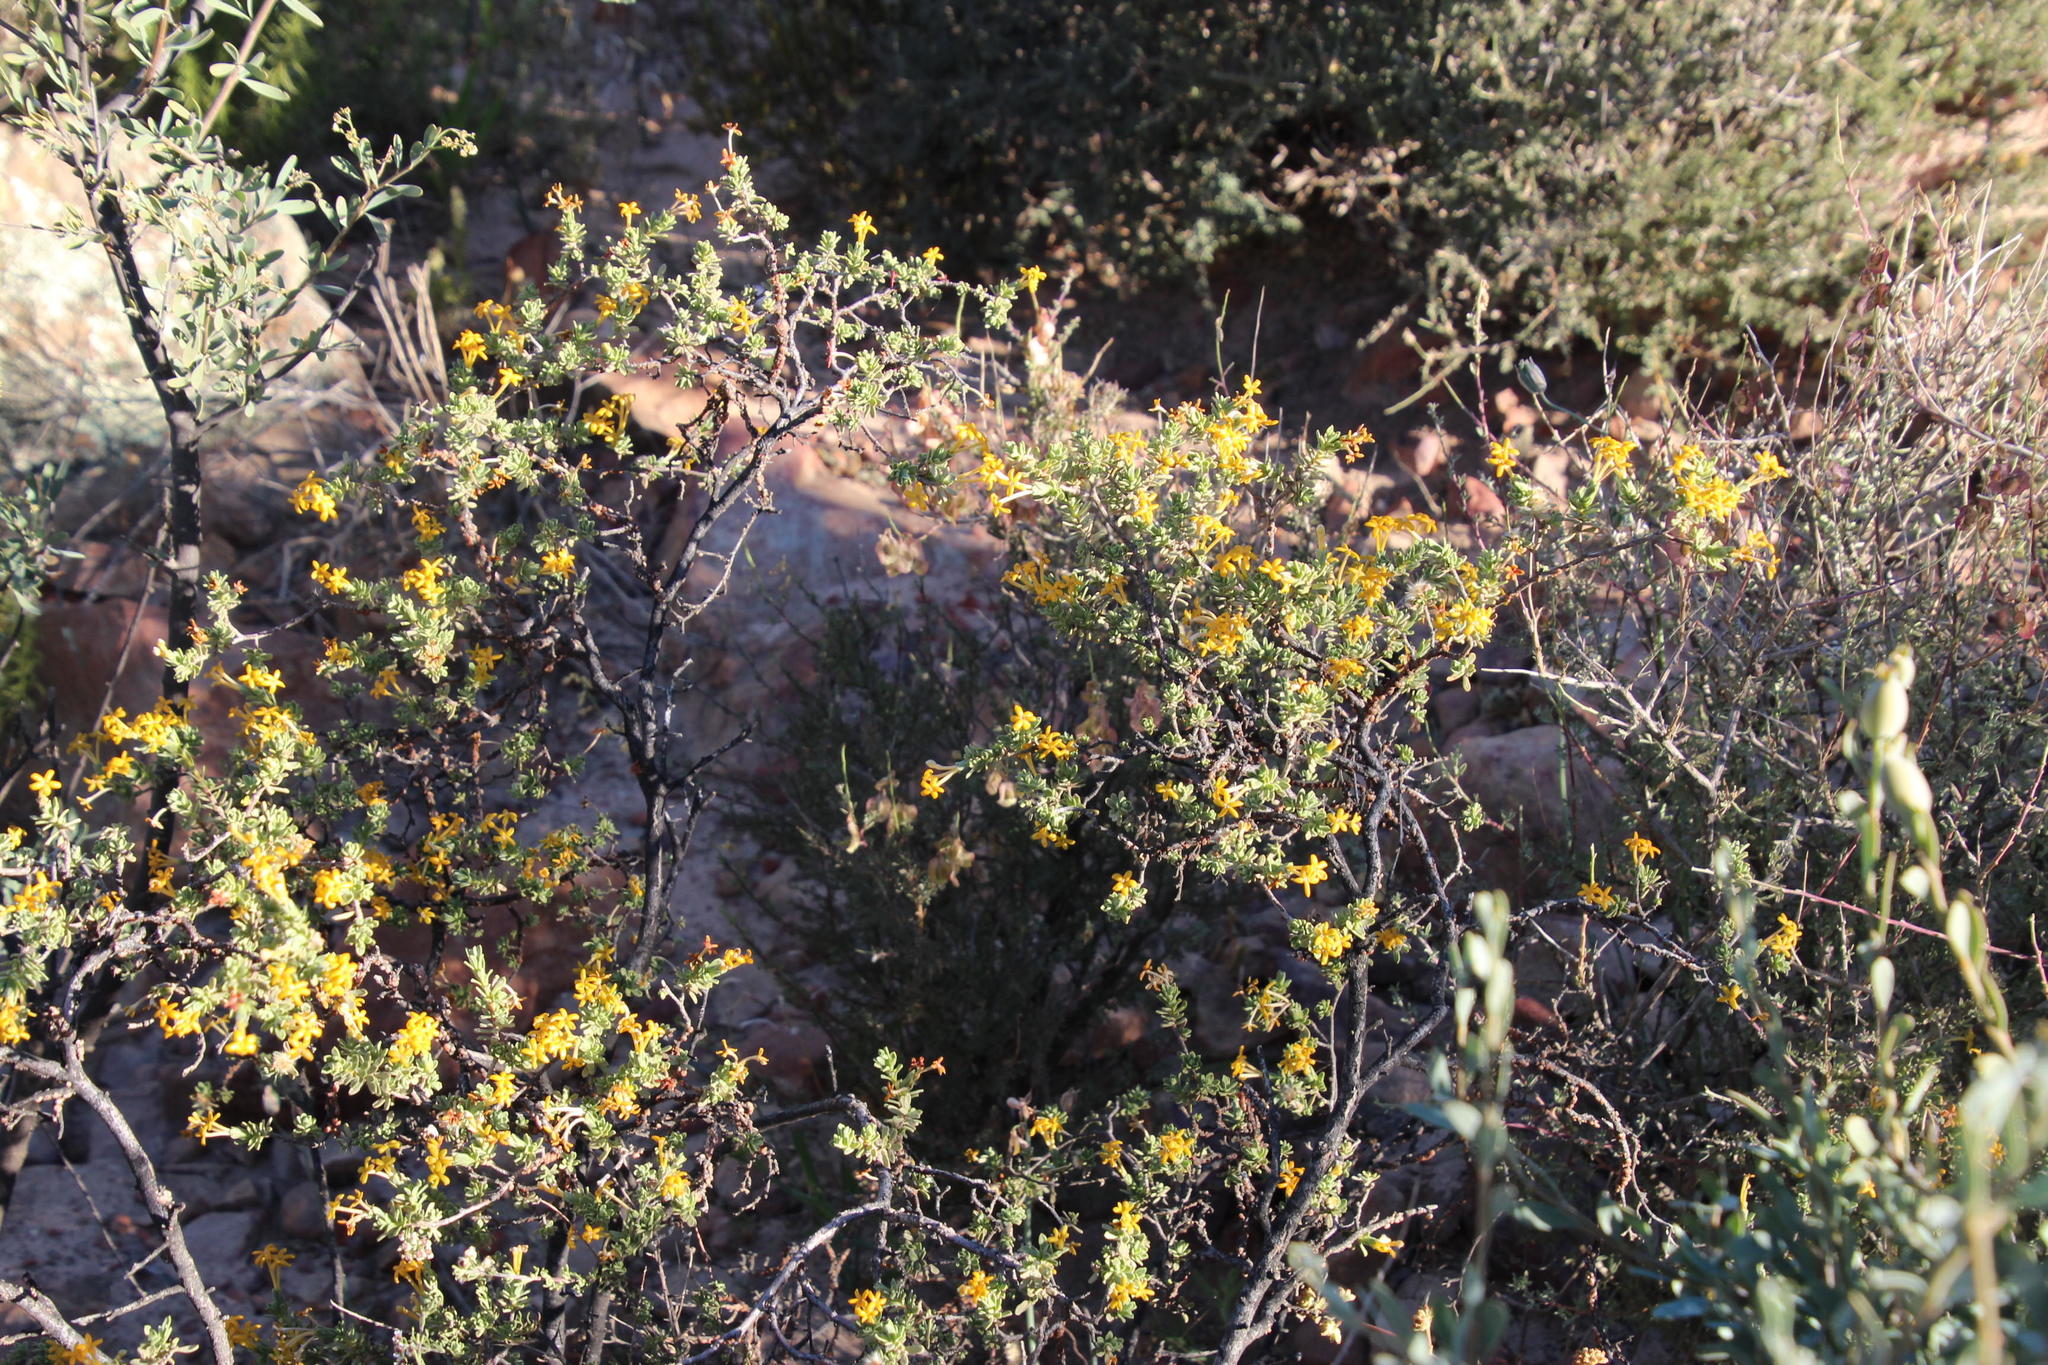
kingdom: Plantae
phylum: Tracheophyta
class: Magnoliopsida
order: Malvales
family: Thymelaeaceae
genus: Gnidia
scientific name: Gnidia deserticola
